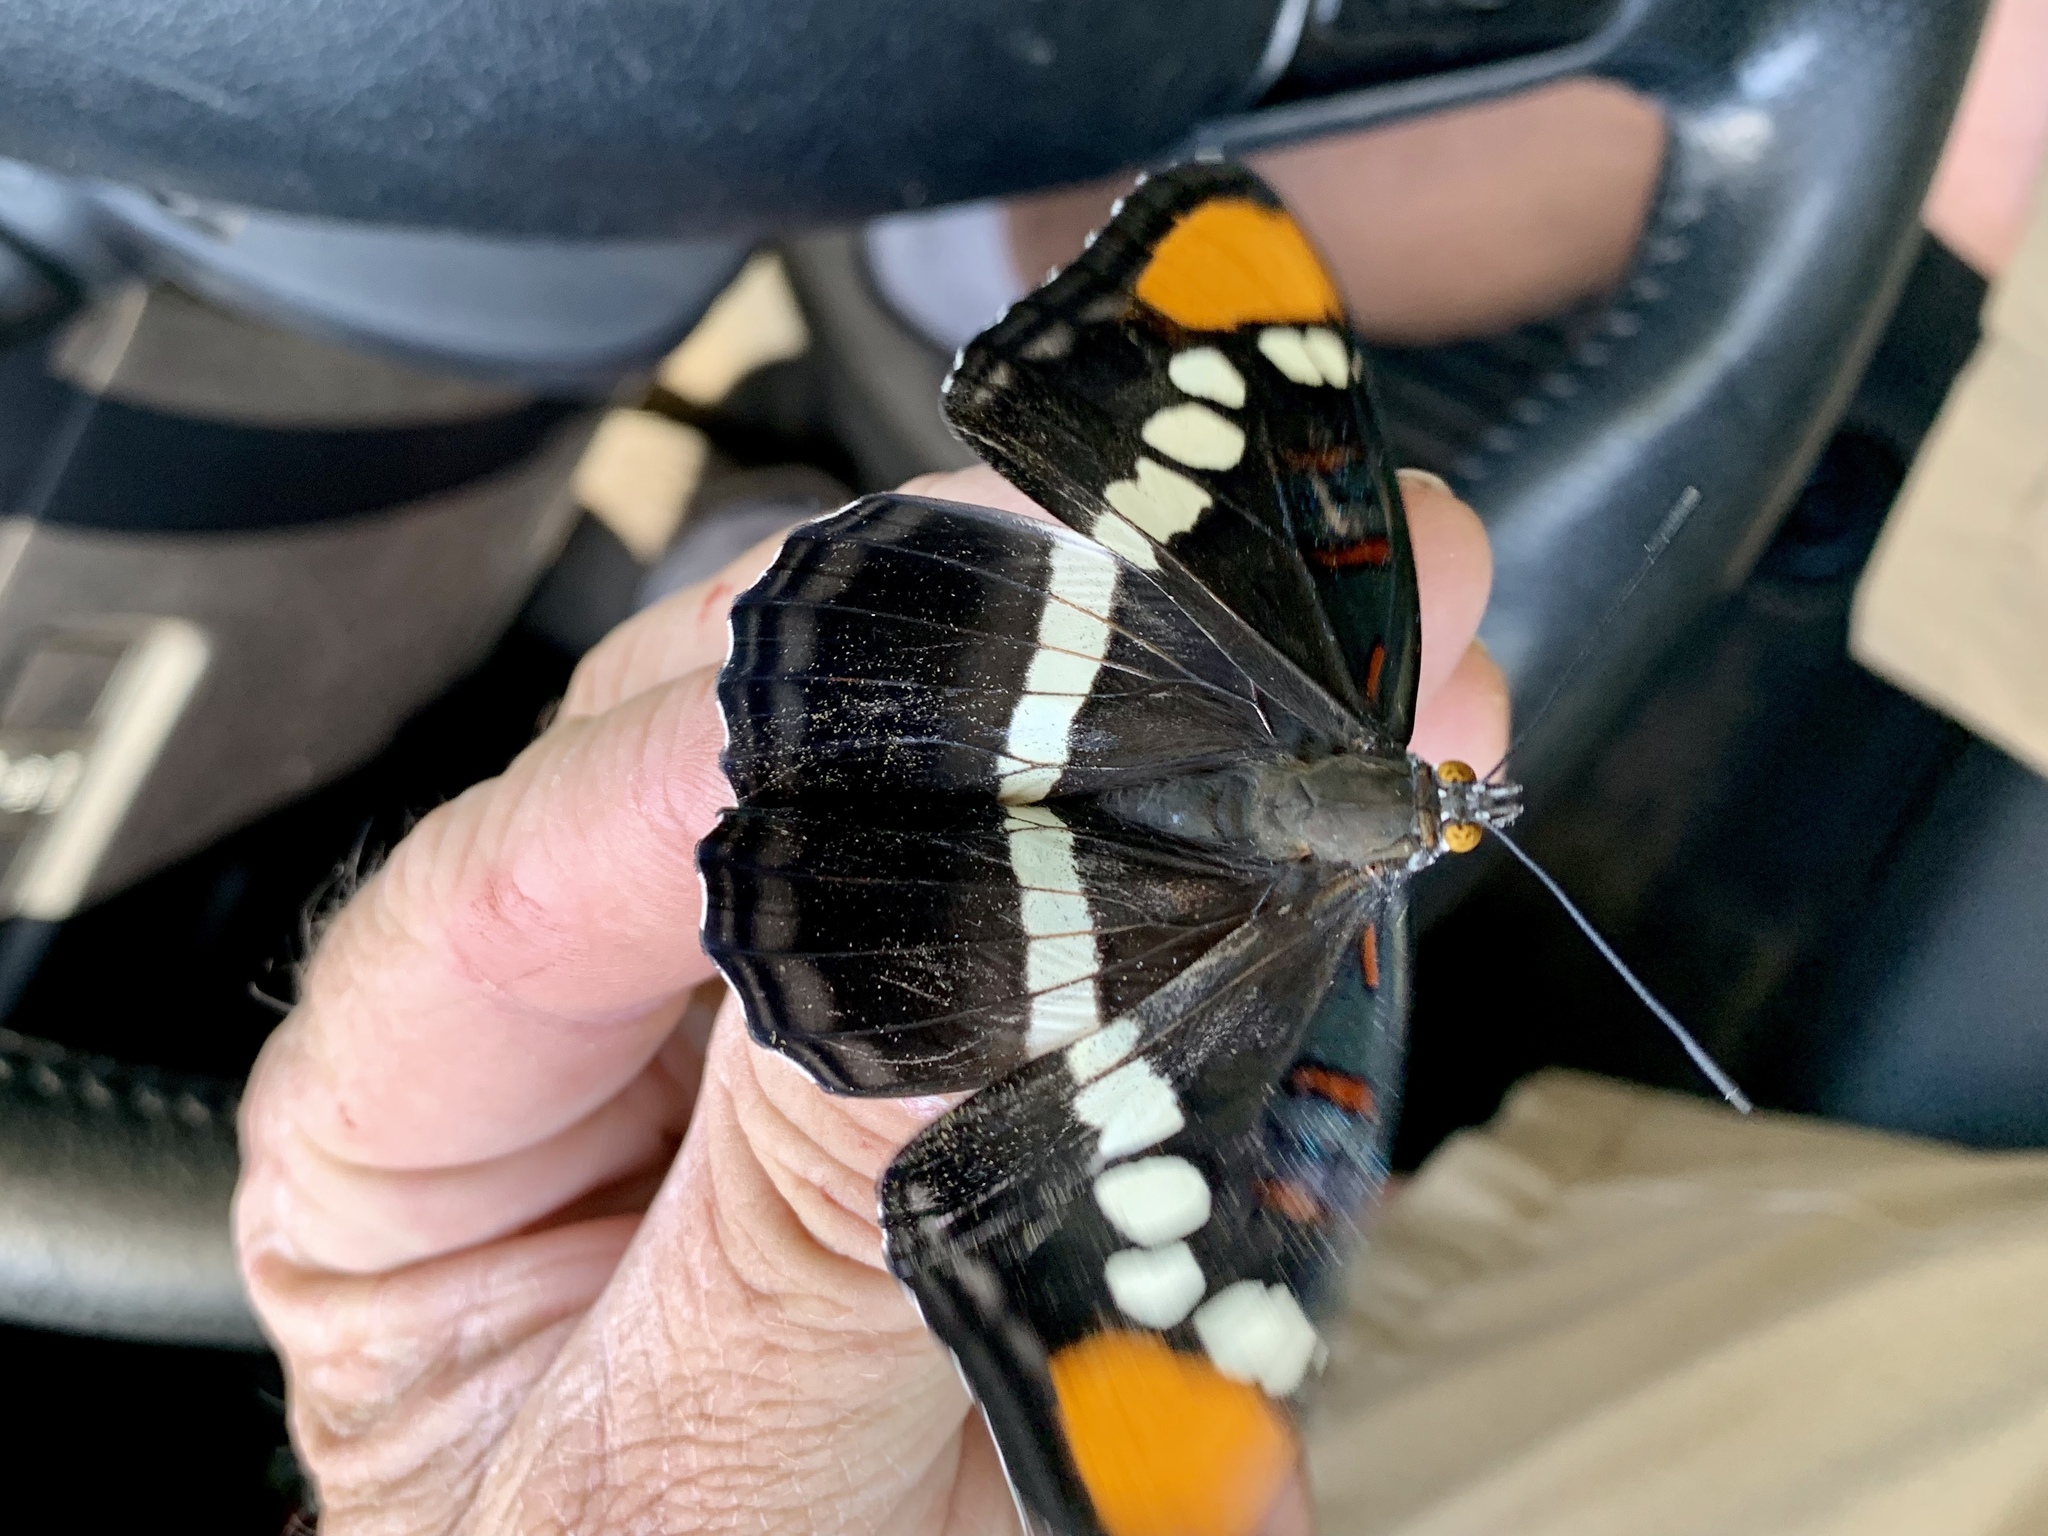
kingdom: Animalia
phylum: Arthropoda
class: Insecta
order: Lepidoptera
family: Nymphalidae
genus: Limenitis
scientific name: Limenitis bredowii
